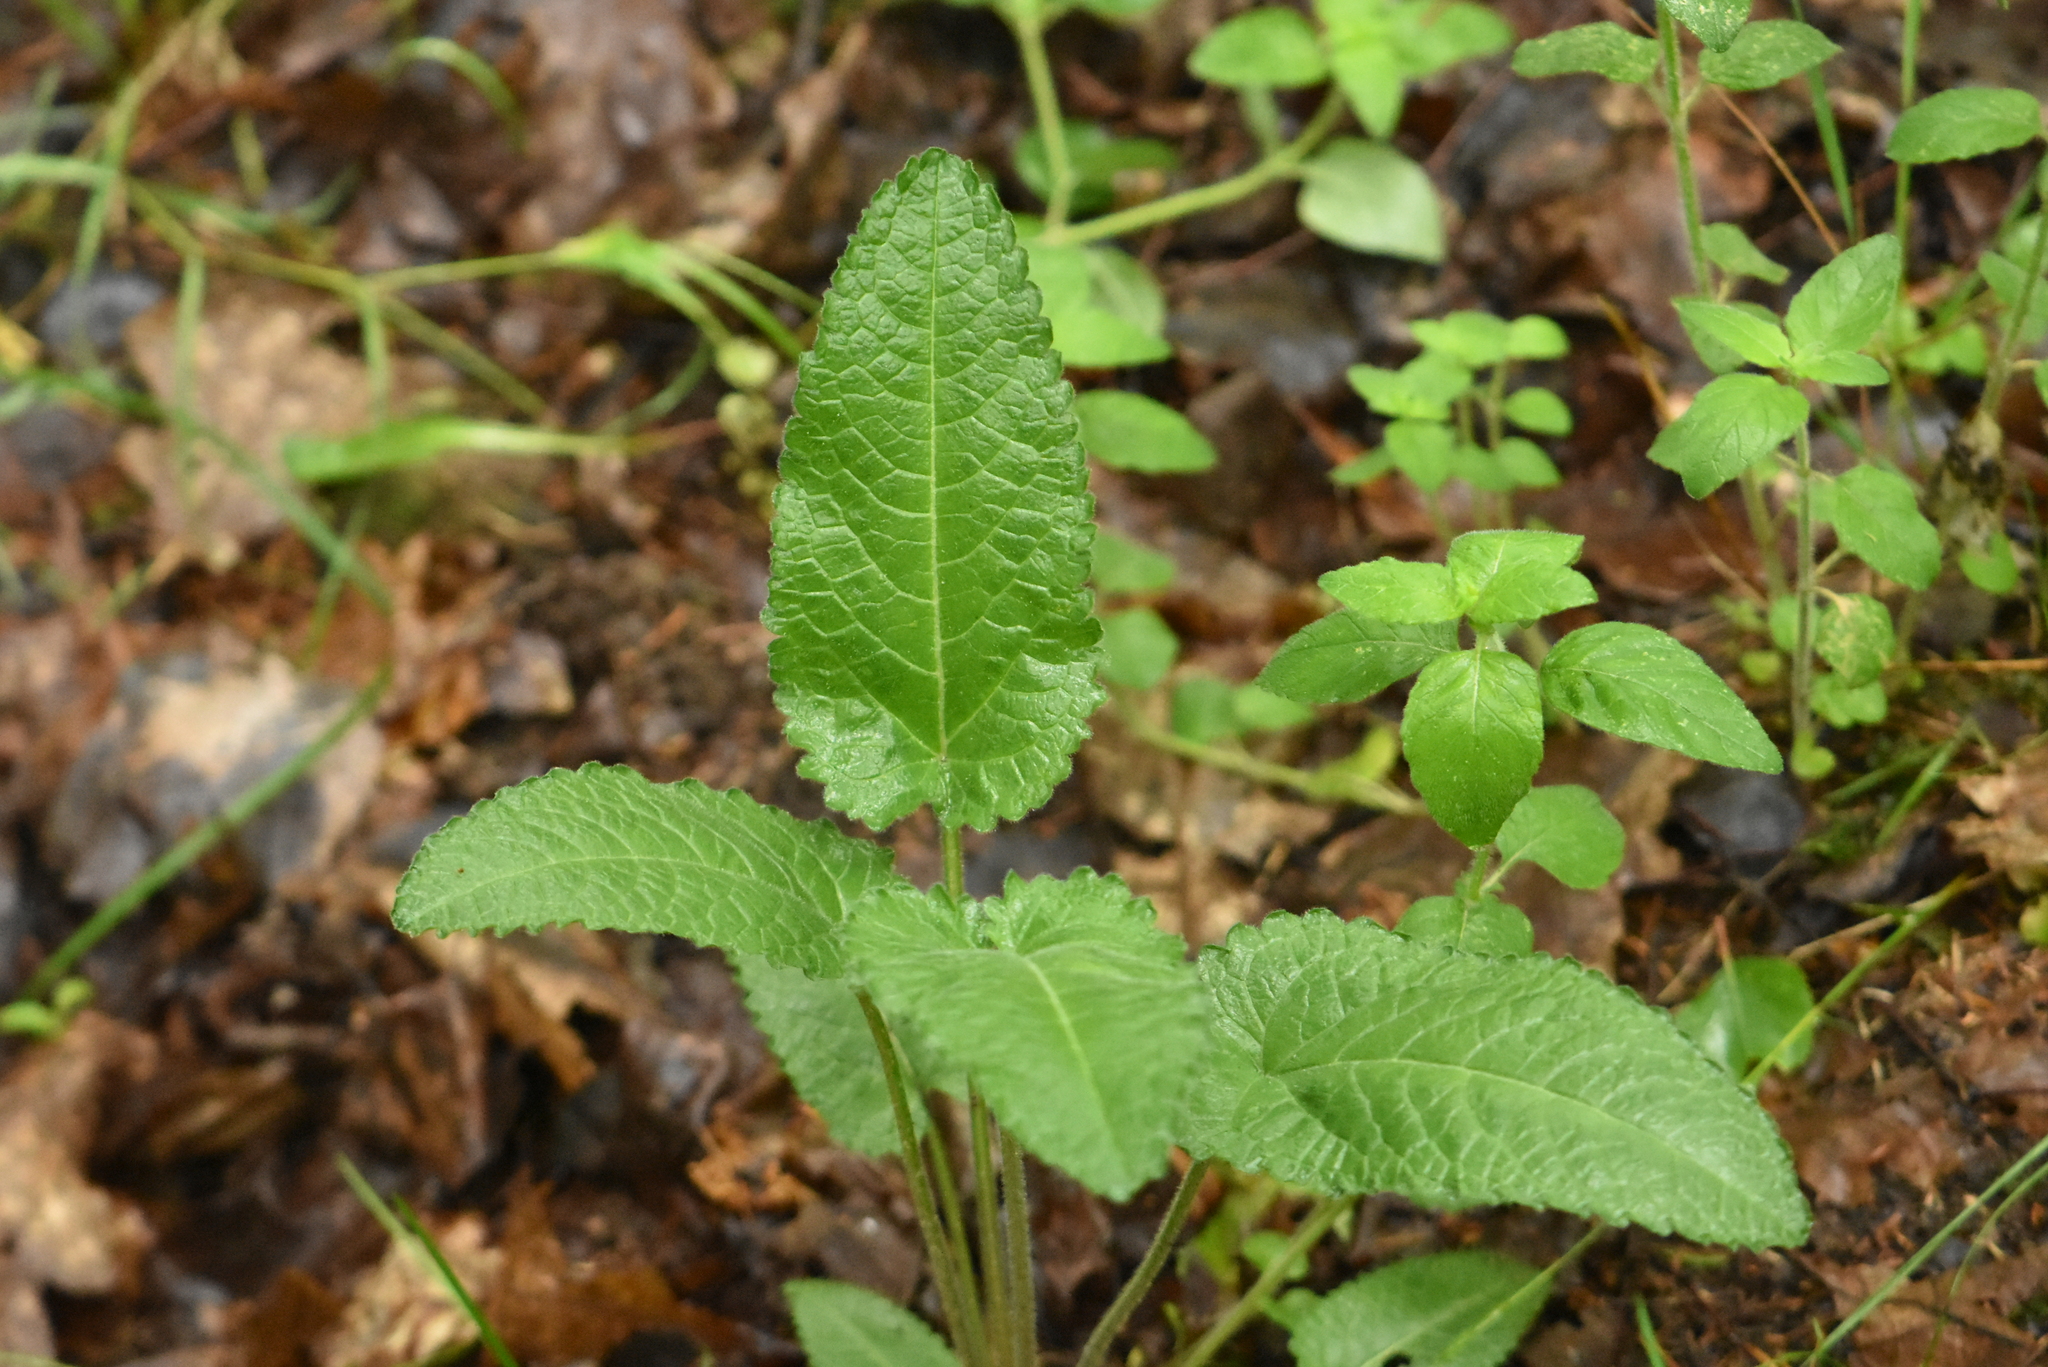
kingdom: Plantae
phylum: Tracheophyta
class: Magnoliopsida
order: Lamiales
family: Lamiaceae
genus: Betonica
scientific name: Betonica officinalis
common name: Bishop's-wort
